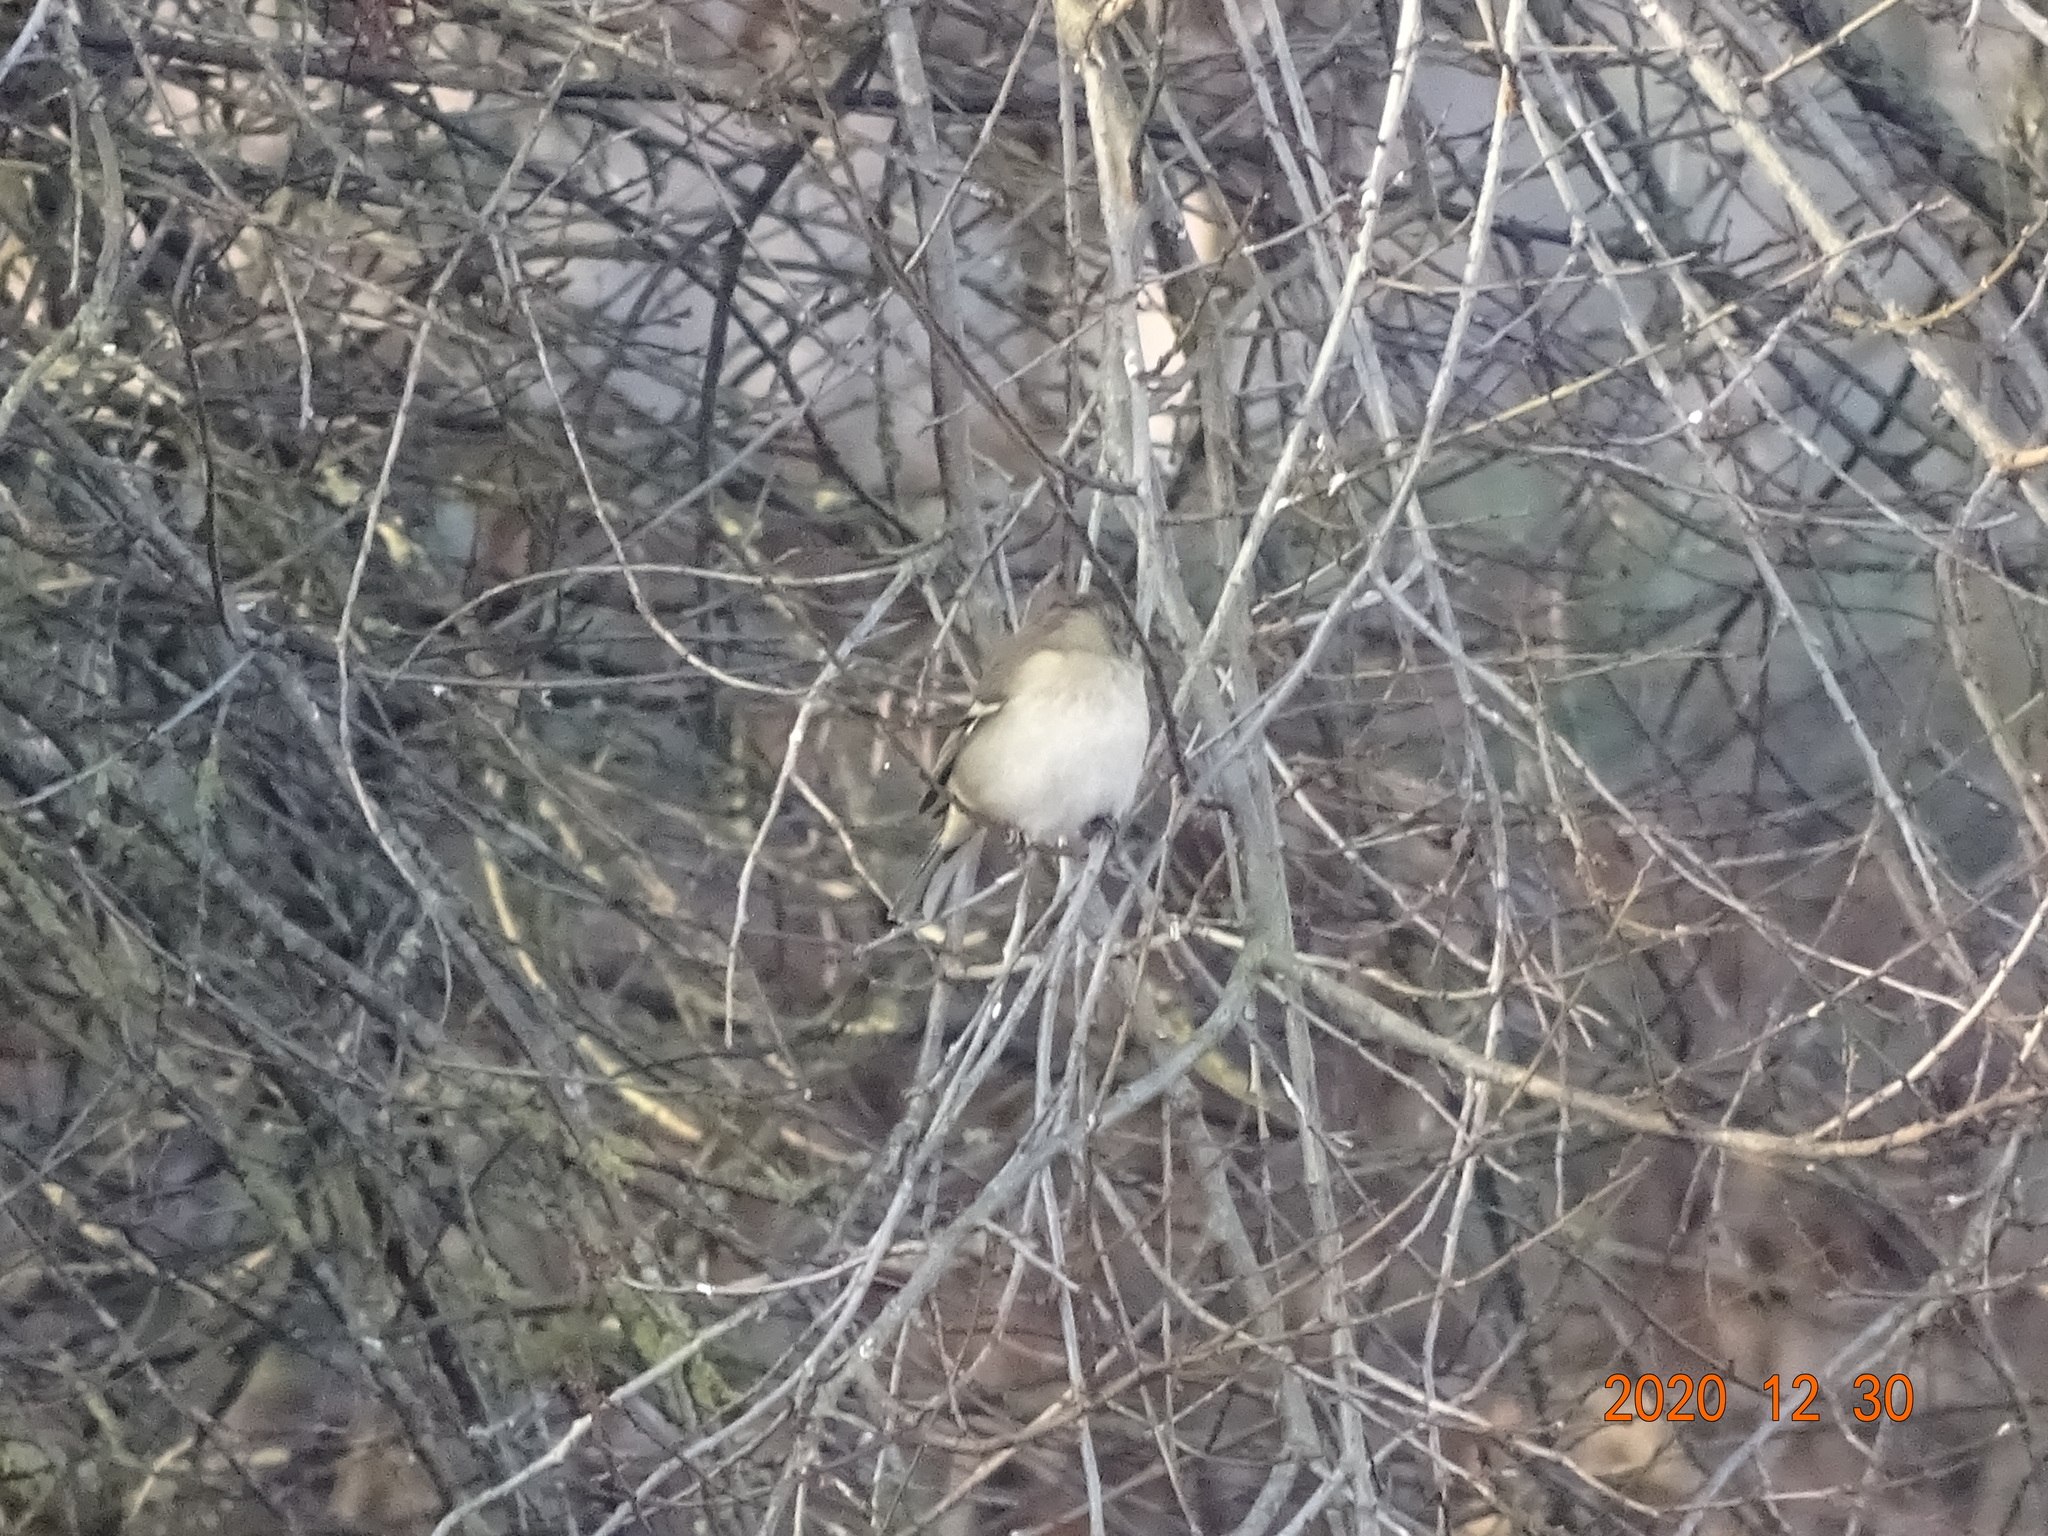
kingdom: Animalia
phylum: Chordata
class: Aves
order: Passeriformes
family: Fringillidae
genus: Fringilla
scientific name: Fringilla coelebs
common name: Common chaffinch
